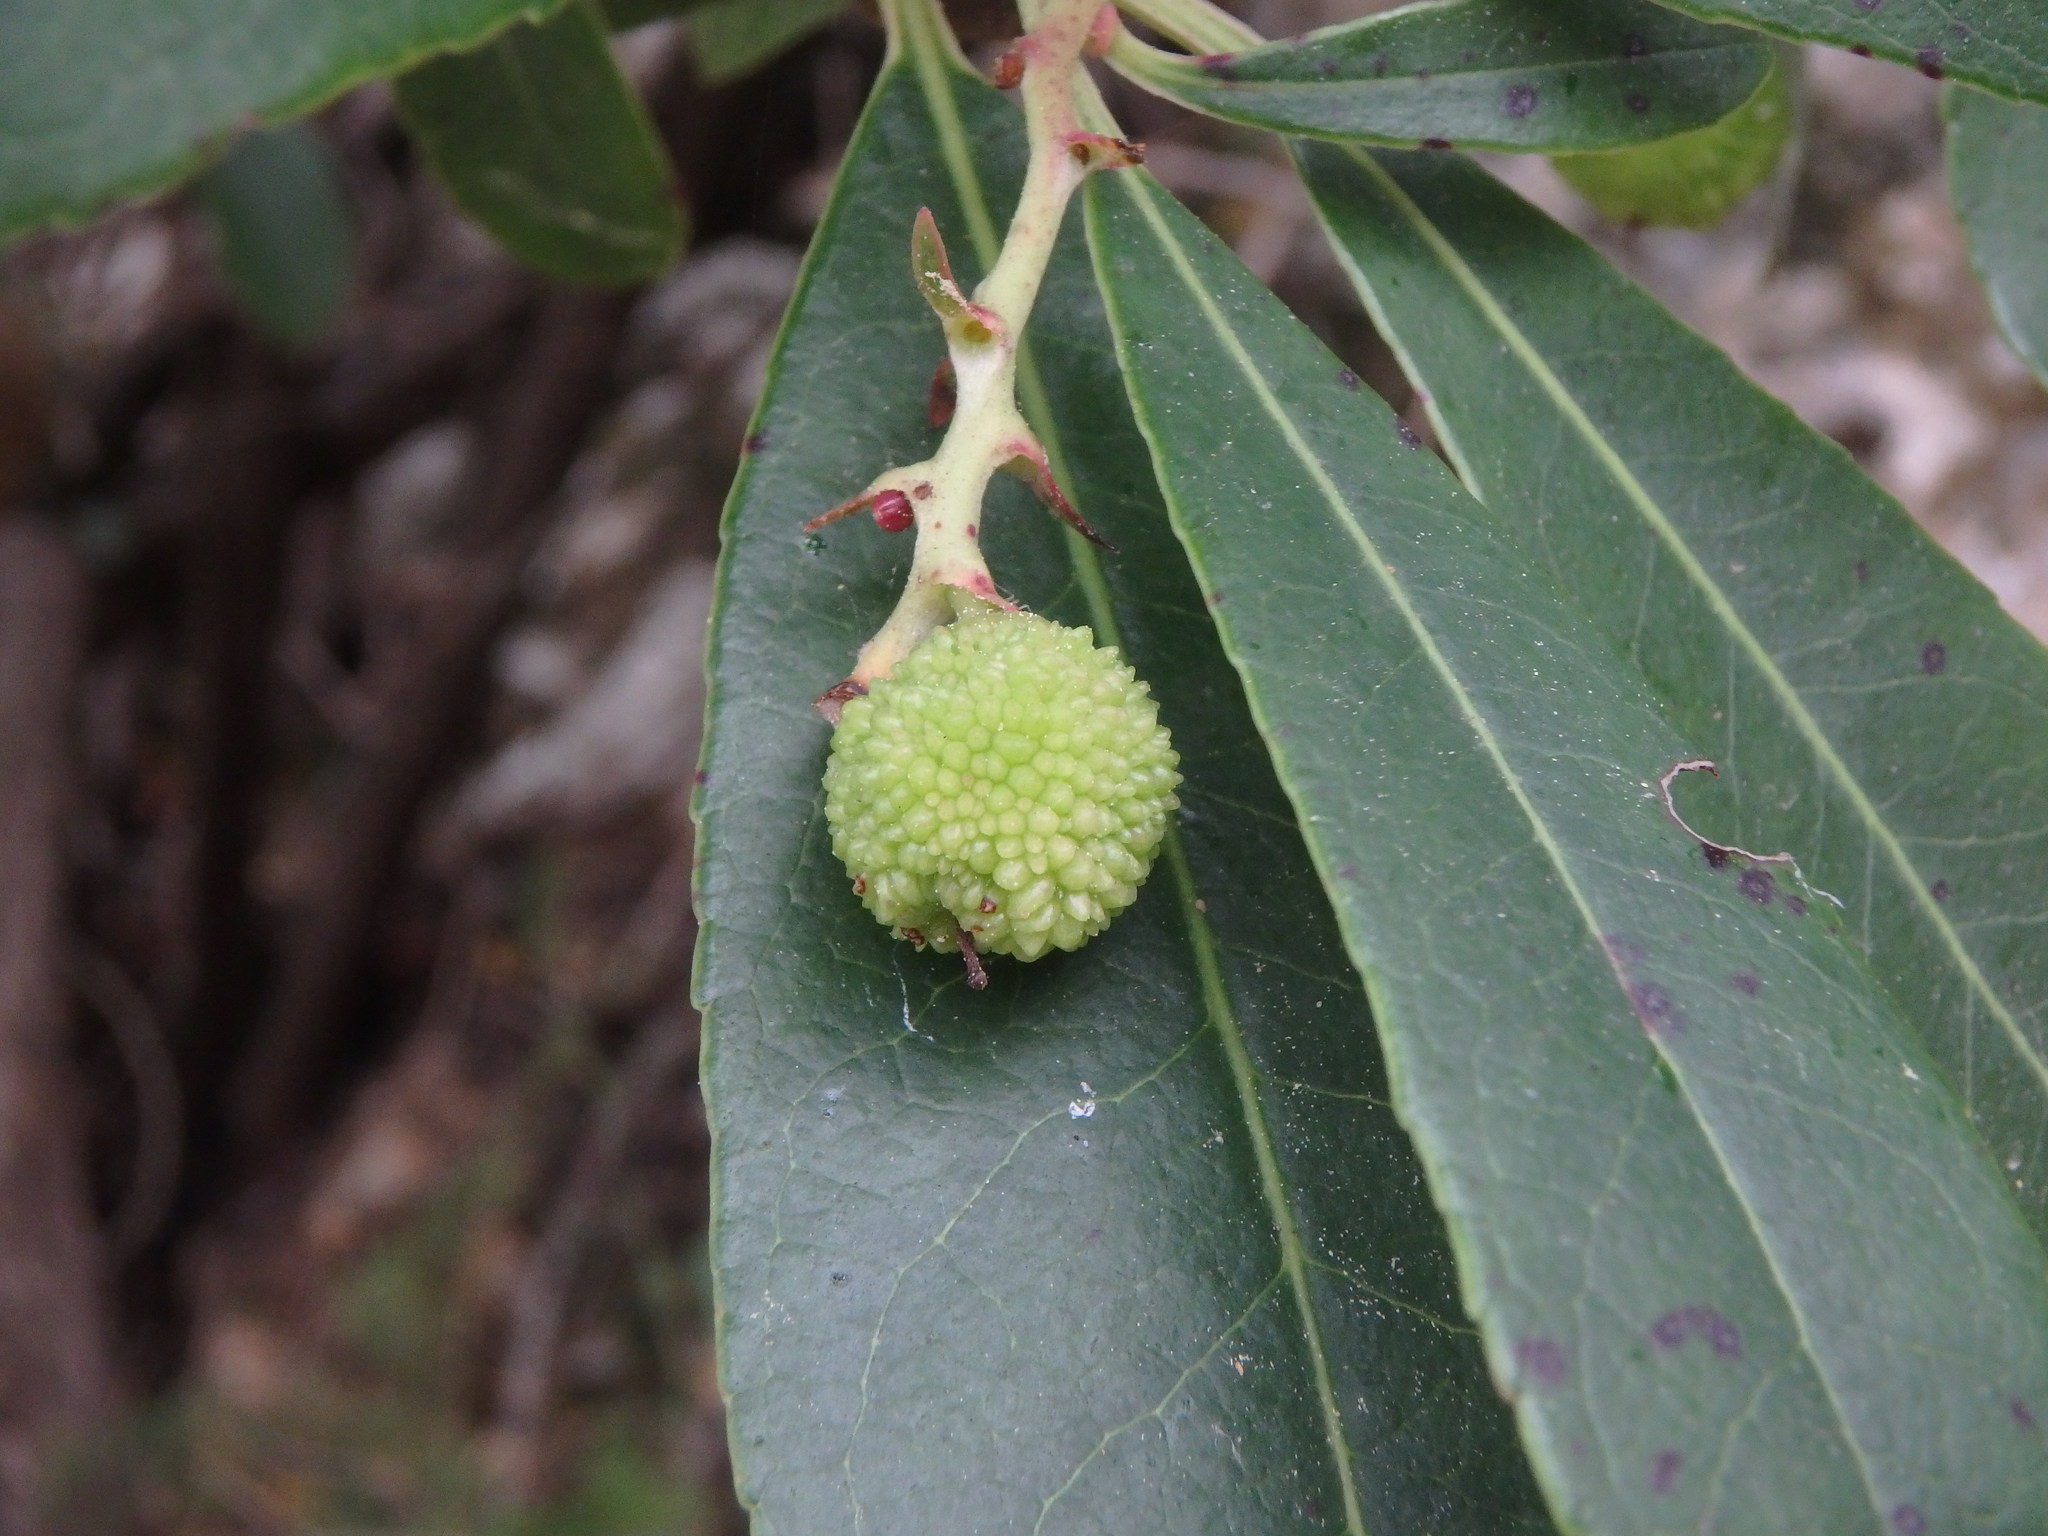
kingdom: Plantae
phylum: Tracheophyta
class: Magnoliopsida
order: Ericales
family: Ericaceae
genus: Arbutus
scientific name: Arbutus unedo
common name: Strawberry-tree
